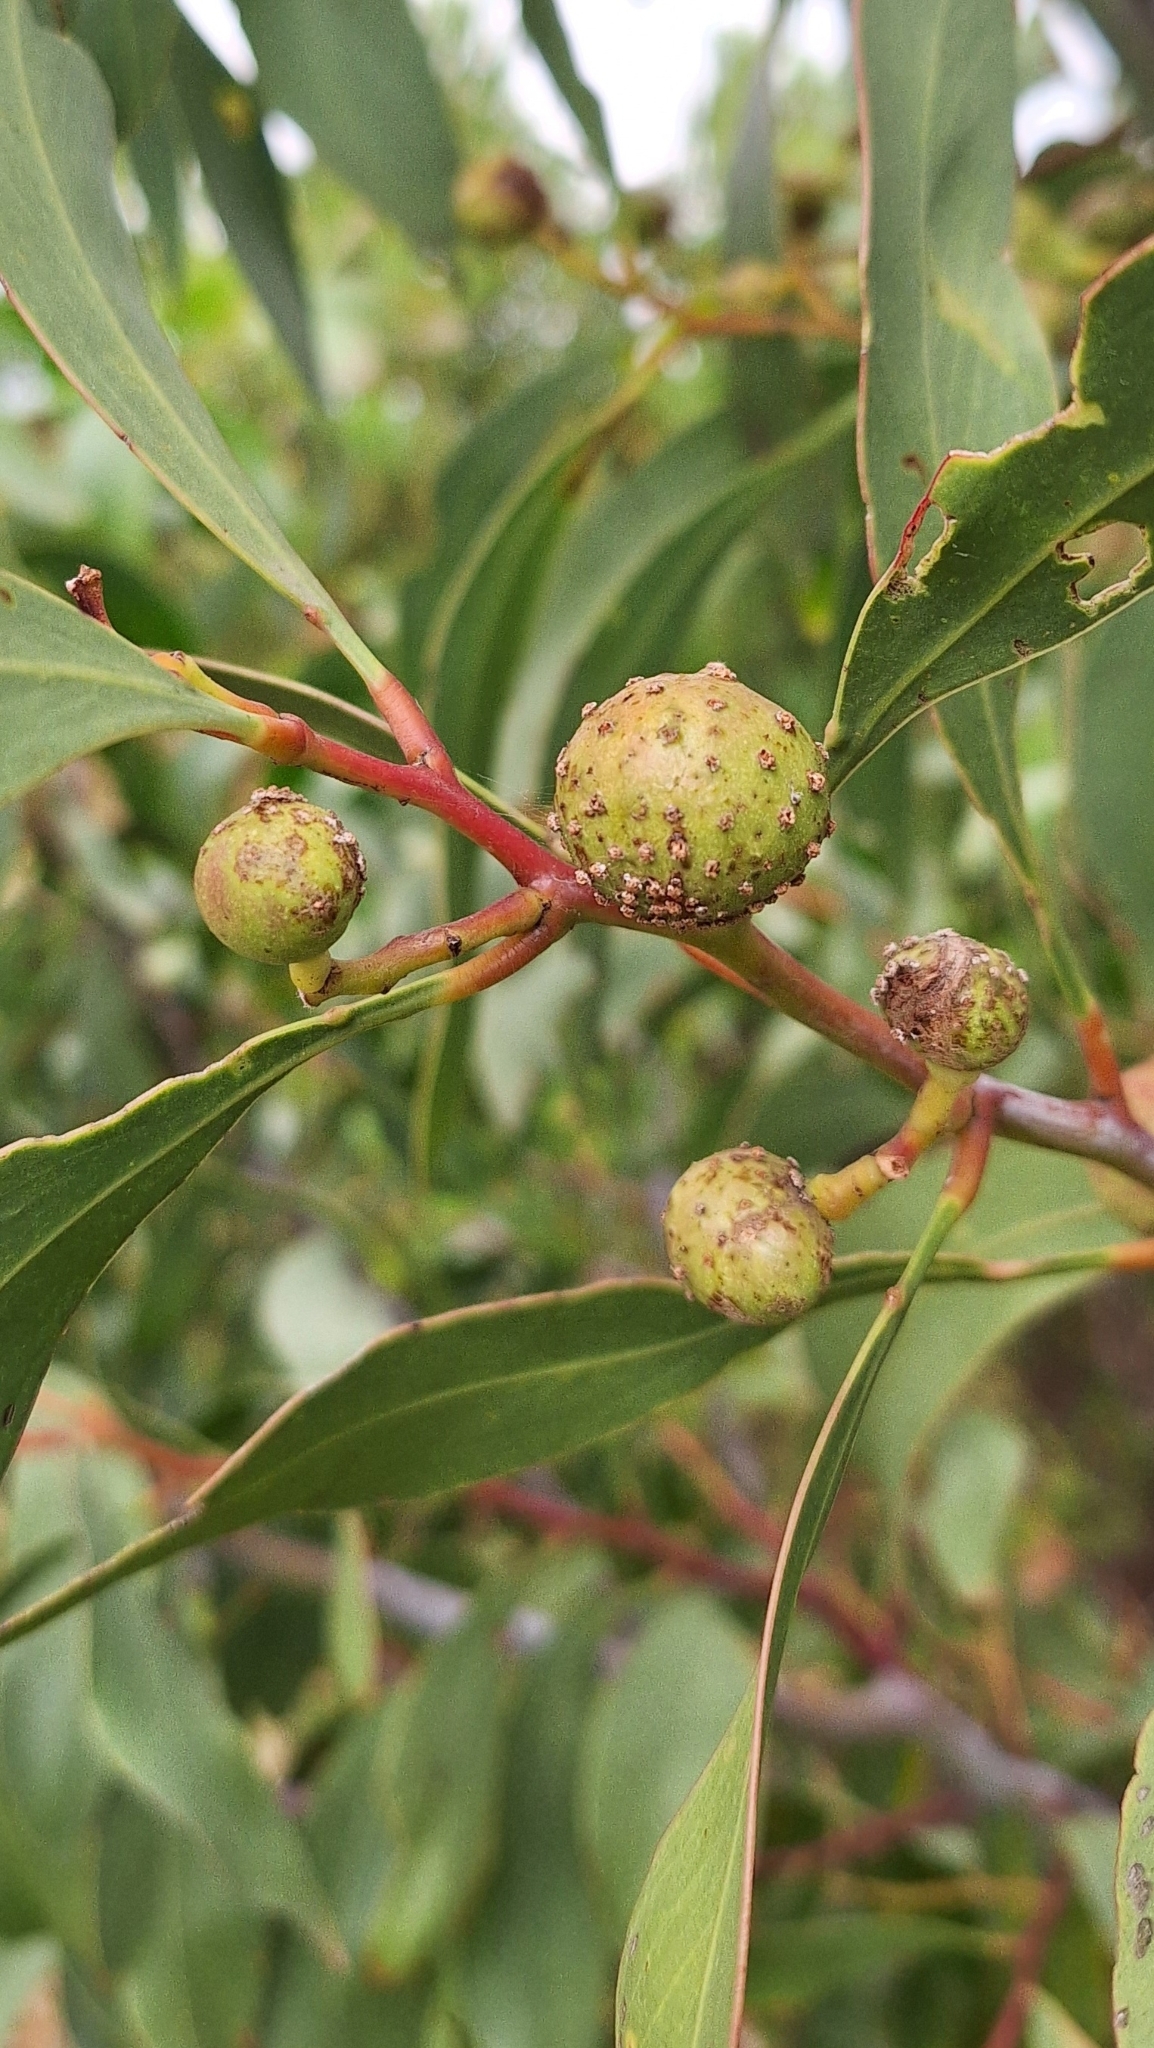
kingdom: Animalia
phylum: Arthropoda
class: Insecta
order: Hymenoptera
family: Pteromalidae
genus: Trichilogaster
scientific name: Trichilogaster signiventris
